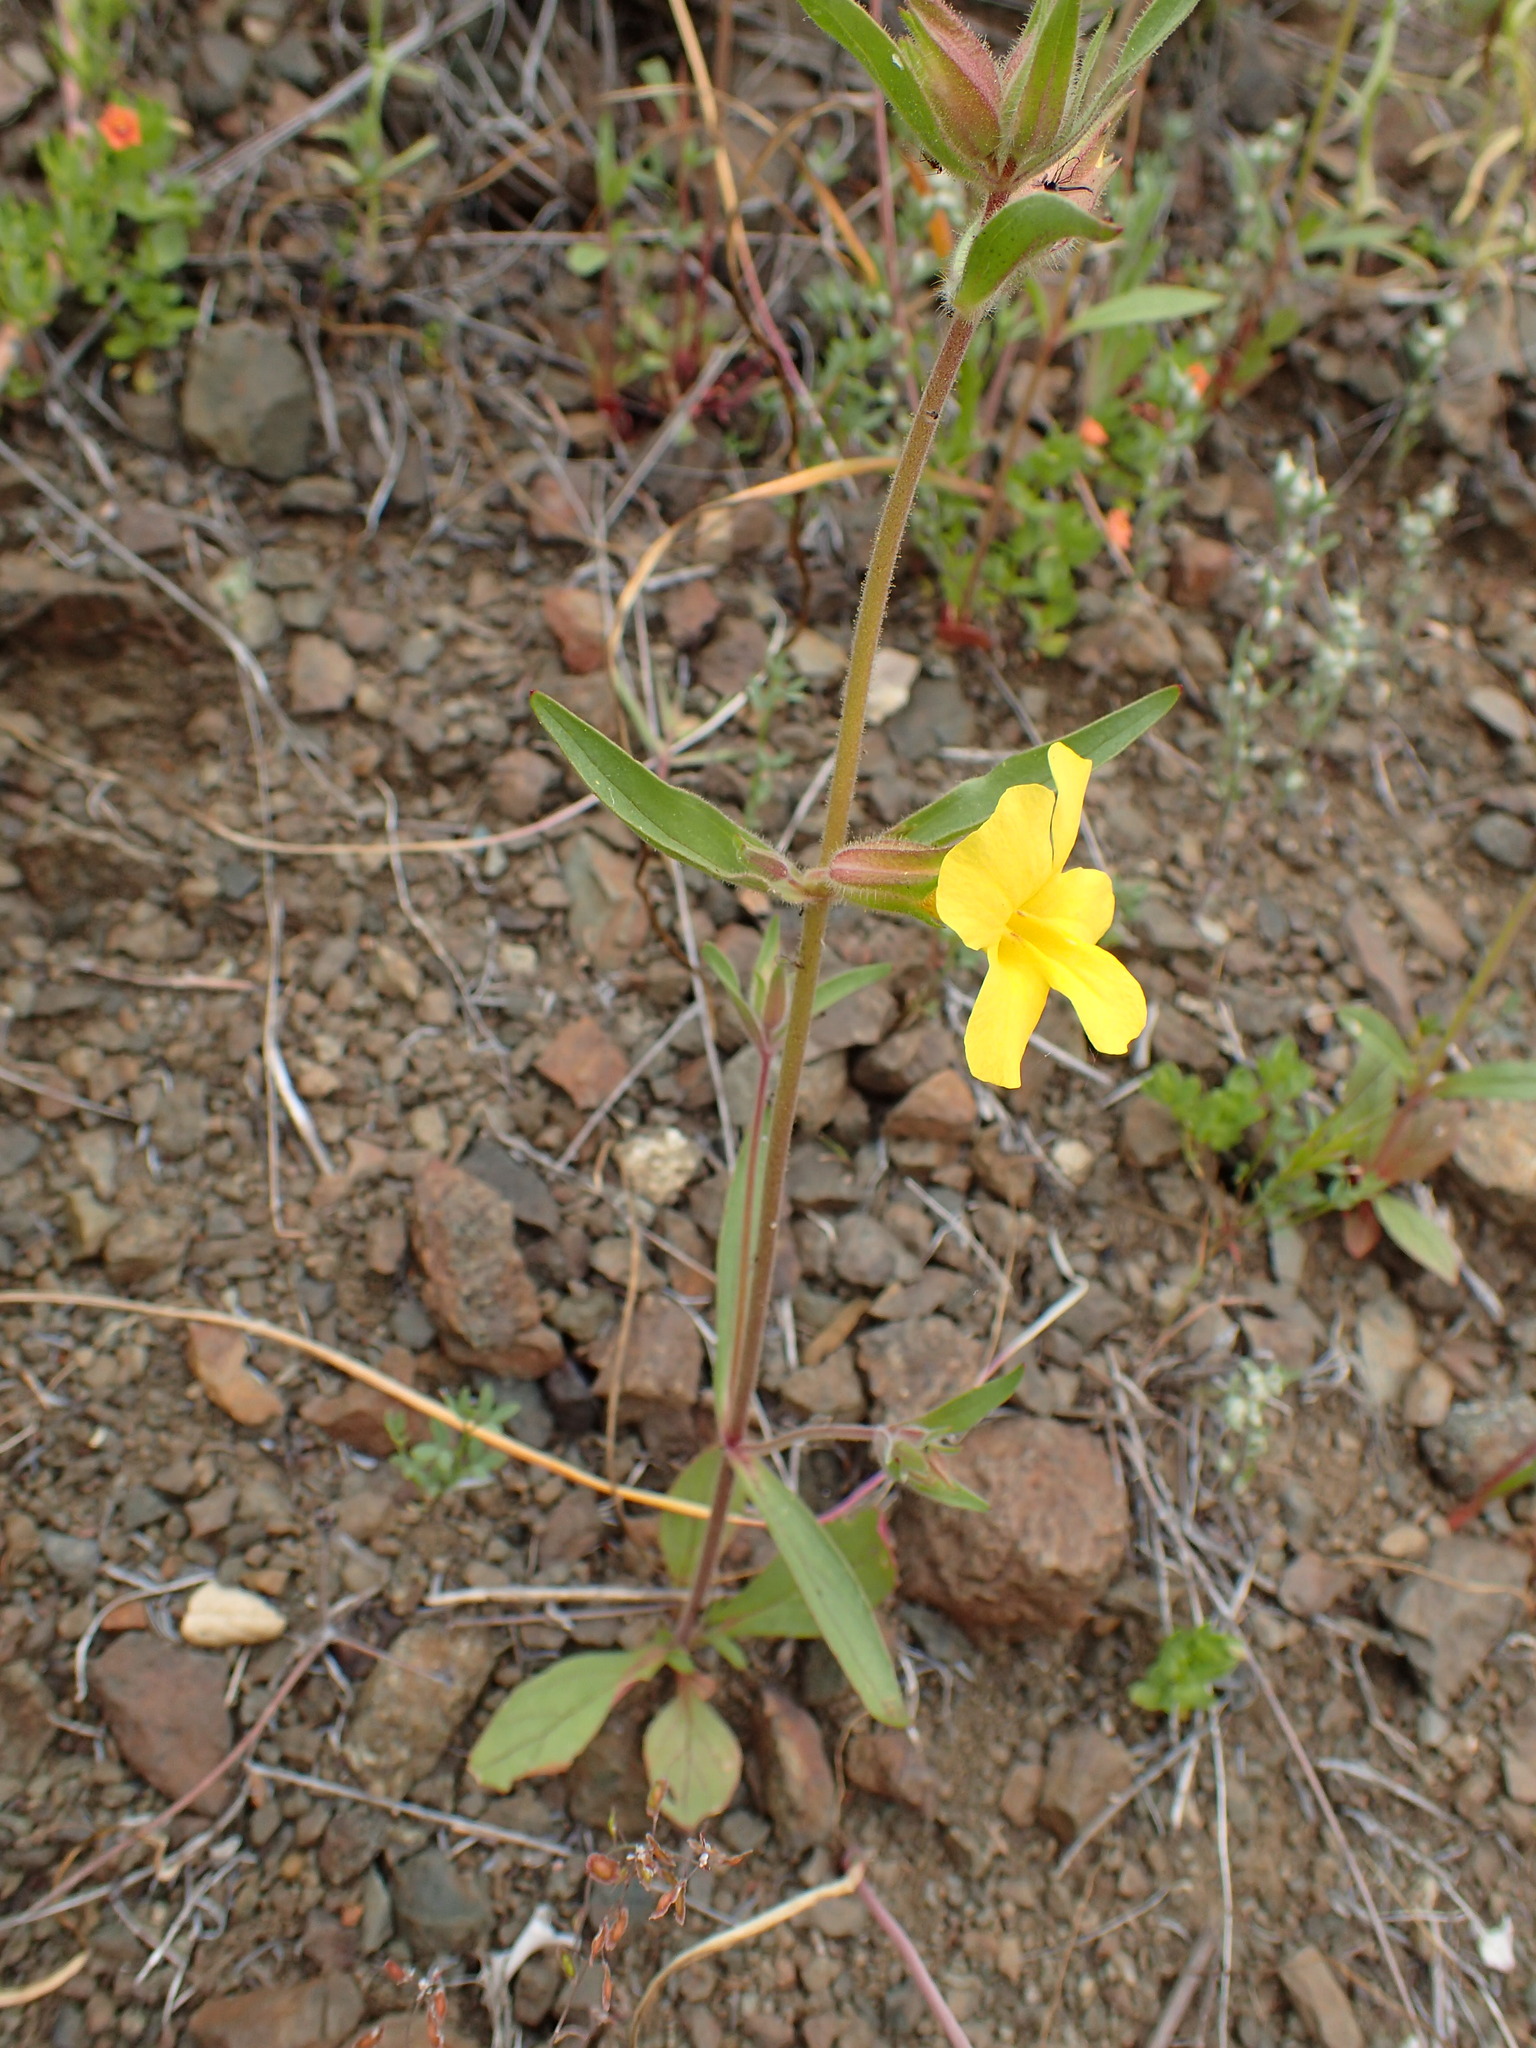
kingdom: Plantae
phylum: Tracheophyta
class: Magnoliopsida
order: Lamiales
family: Phrymaceae
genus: Diplacus
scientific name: Diplacus brevipes
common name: Wide-throat yellow monkey-flower
